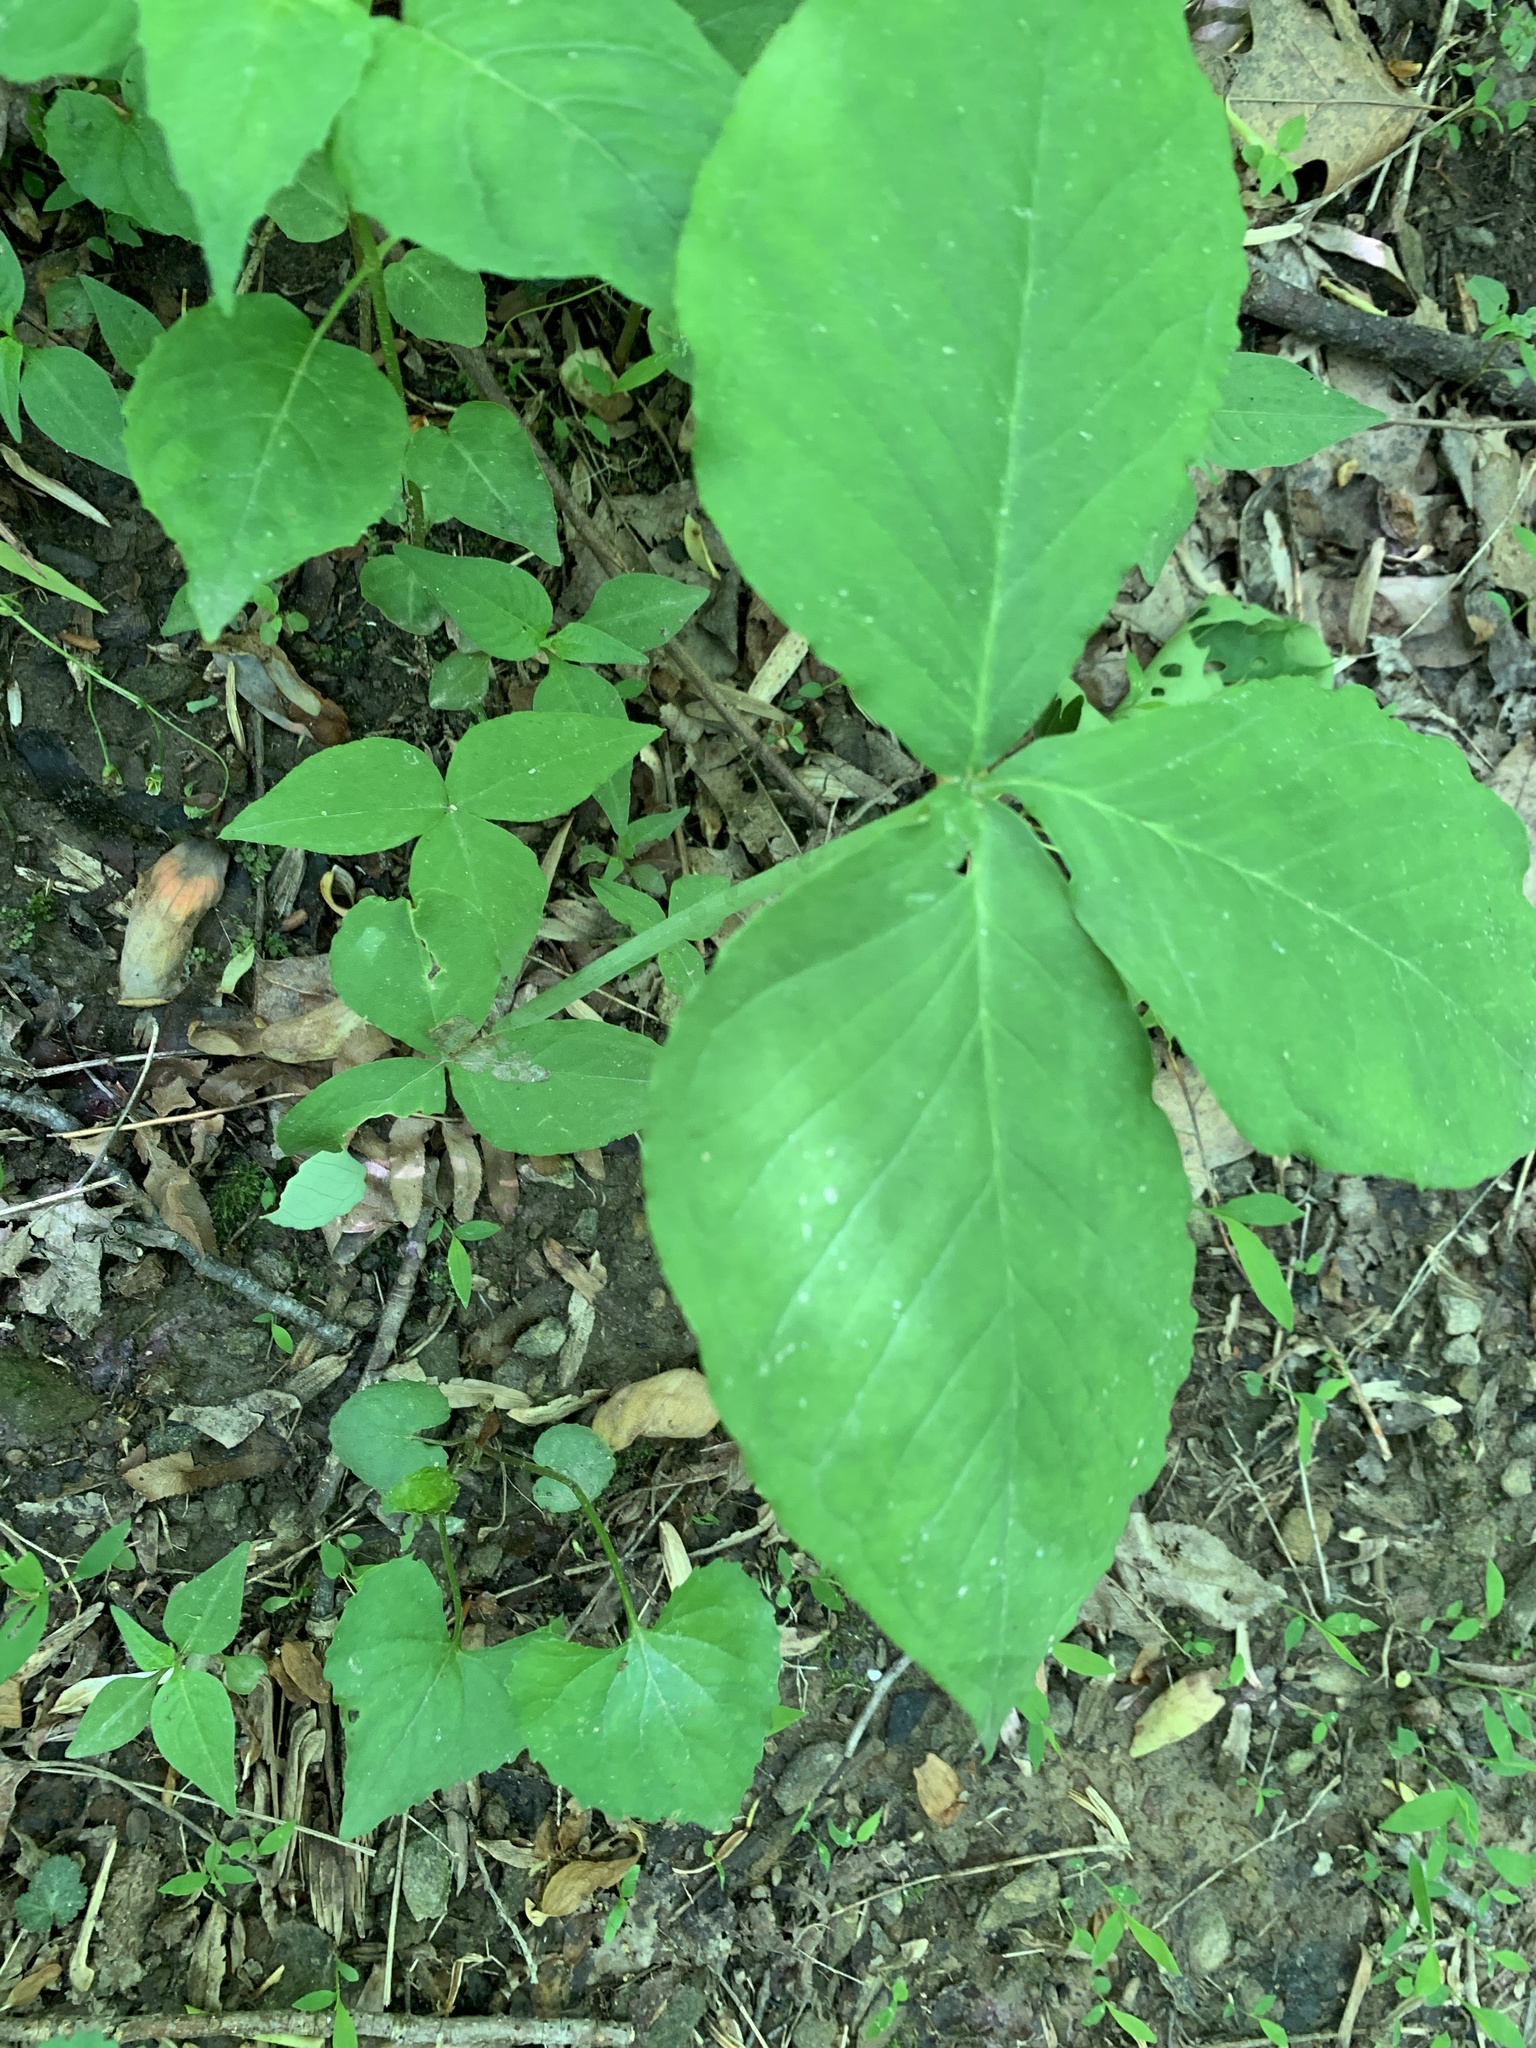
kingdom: Plantae
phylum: Tracheophyta
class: Liliopsida
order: Alismatales
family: Araceae
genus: Arisaema
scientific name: Arisaema triphyllum
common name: Jack-in-the-pulpit
